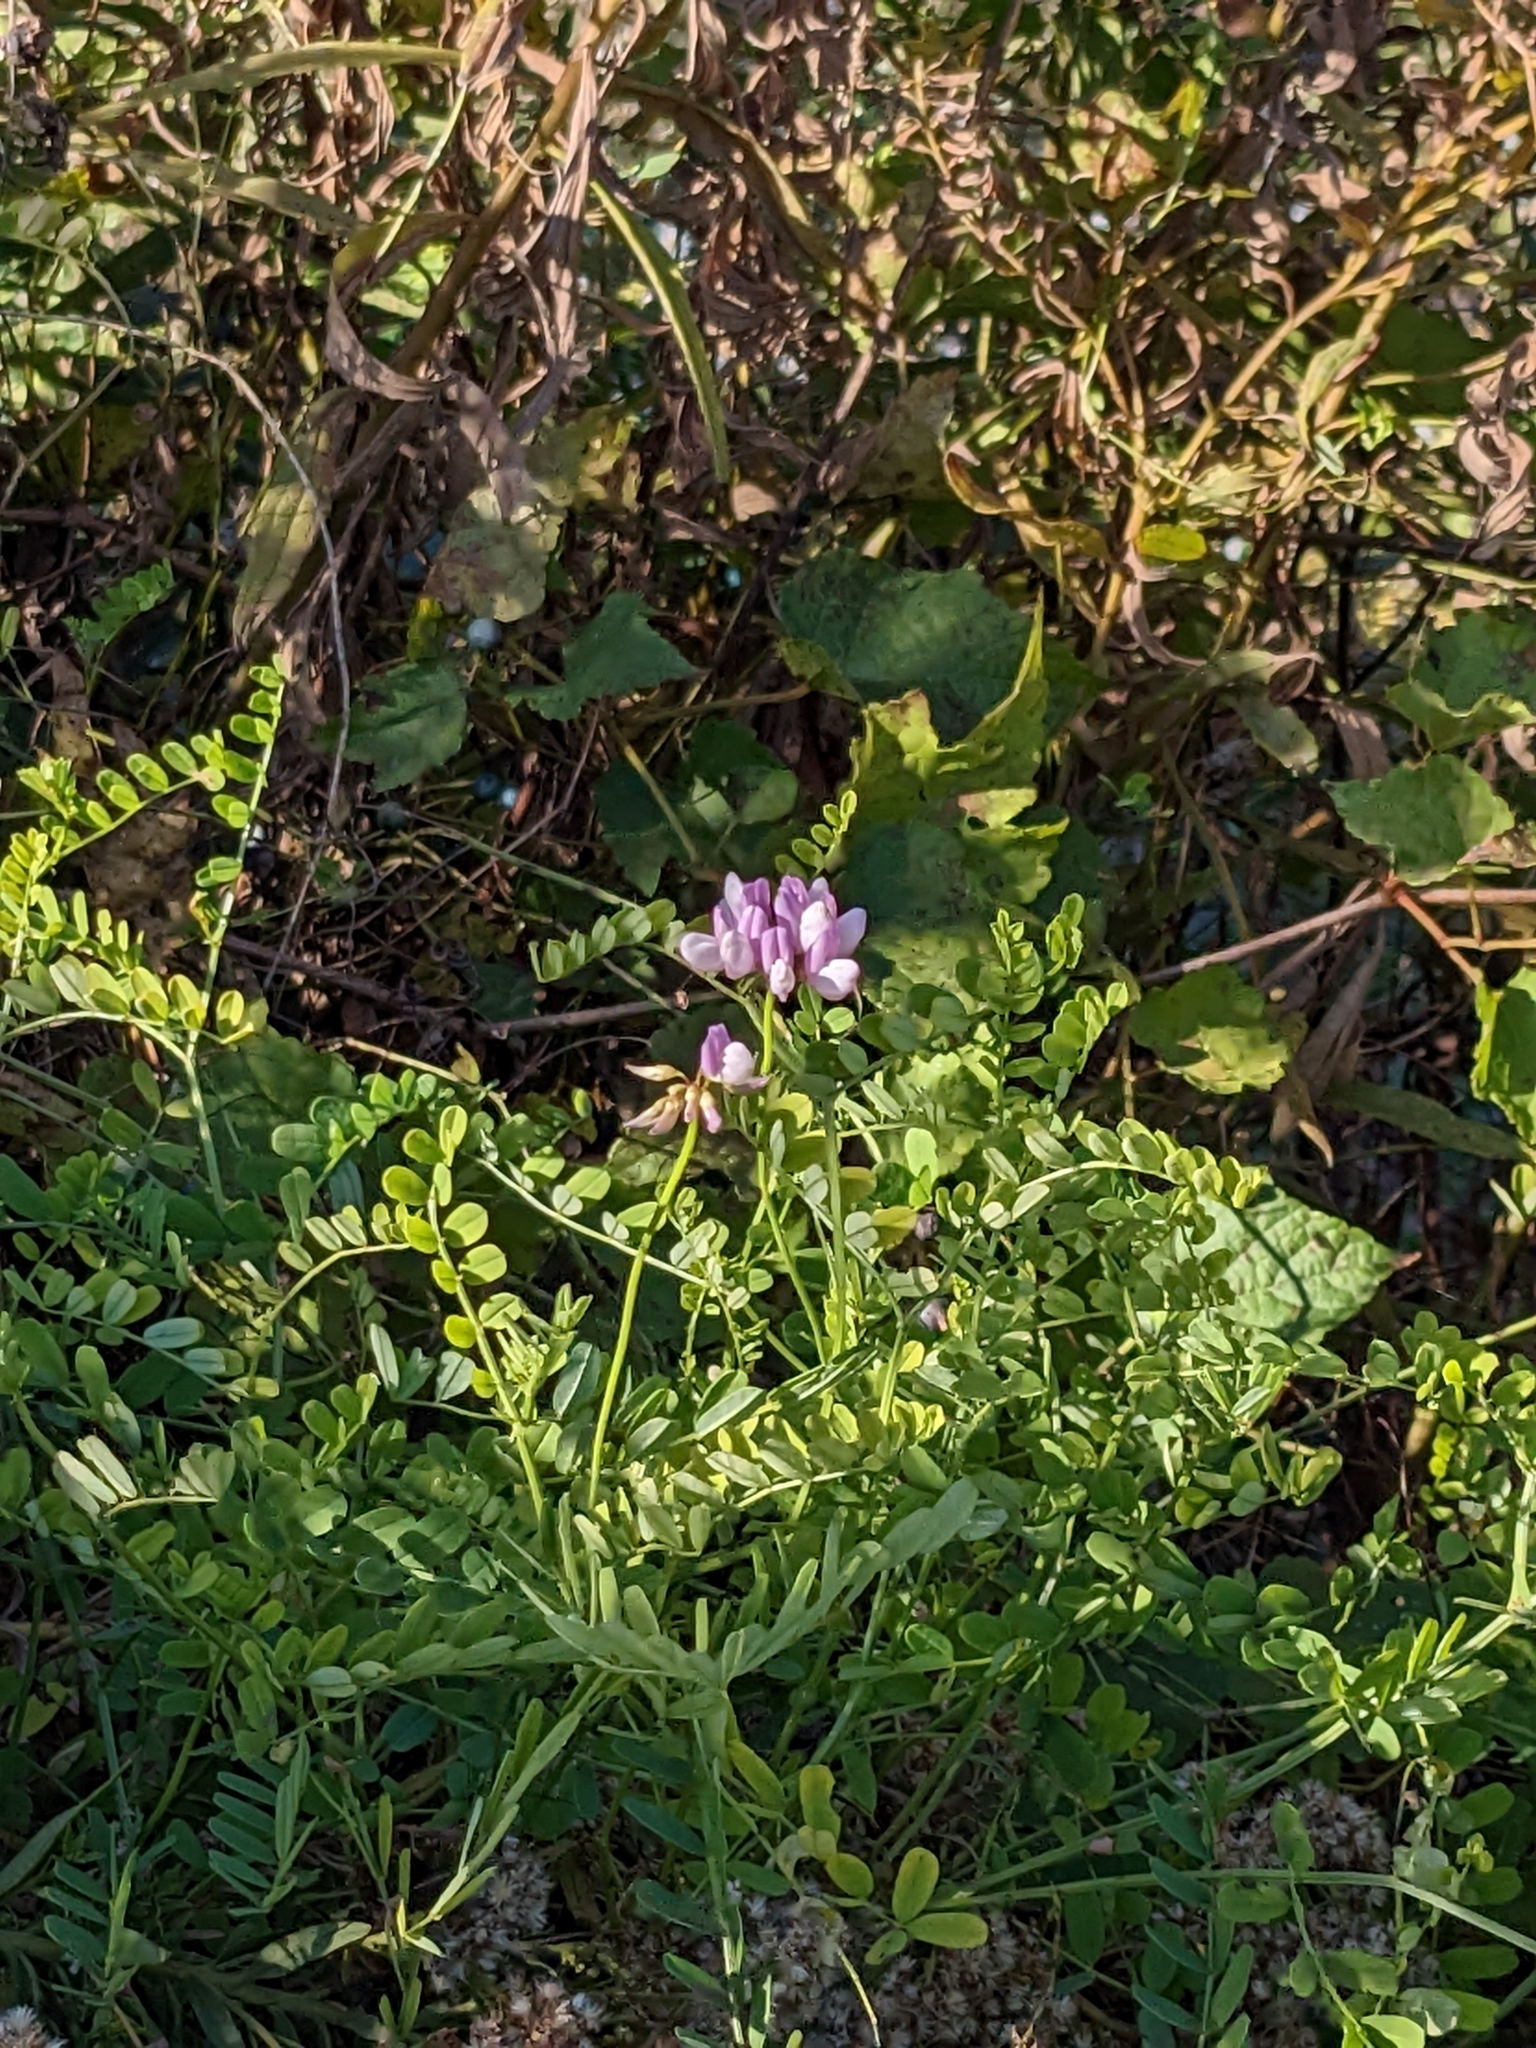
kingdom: Plantae
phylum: Tracheophyta
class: Magnoliopsida
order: Fabales
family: Fabaceae
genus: Coronilla
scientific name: Coronilla varia
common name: Crownvetch
